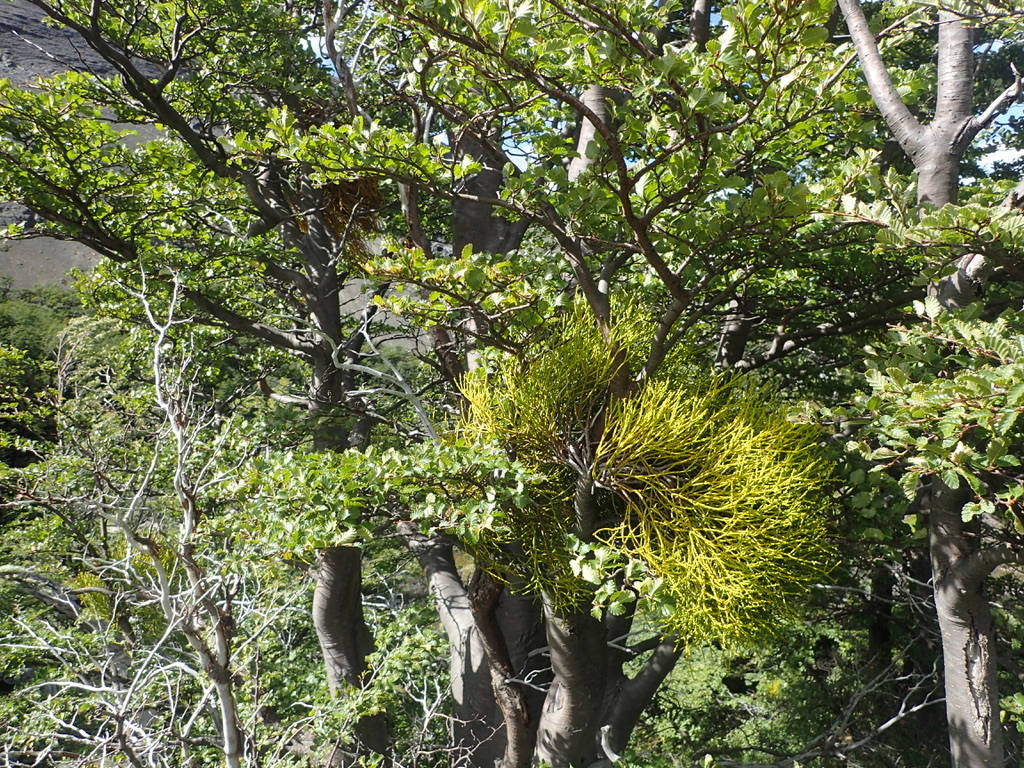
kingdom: Plantae
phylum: Tracheophyta
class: Magnoliopsida
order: Santalales
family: Misodendraceae
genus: Misodendrum
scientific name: Misodendrum punctulatum
